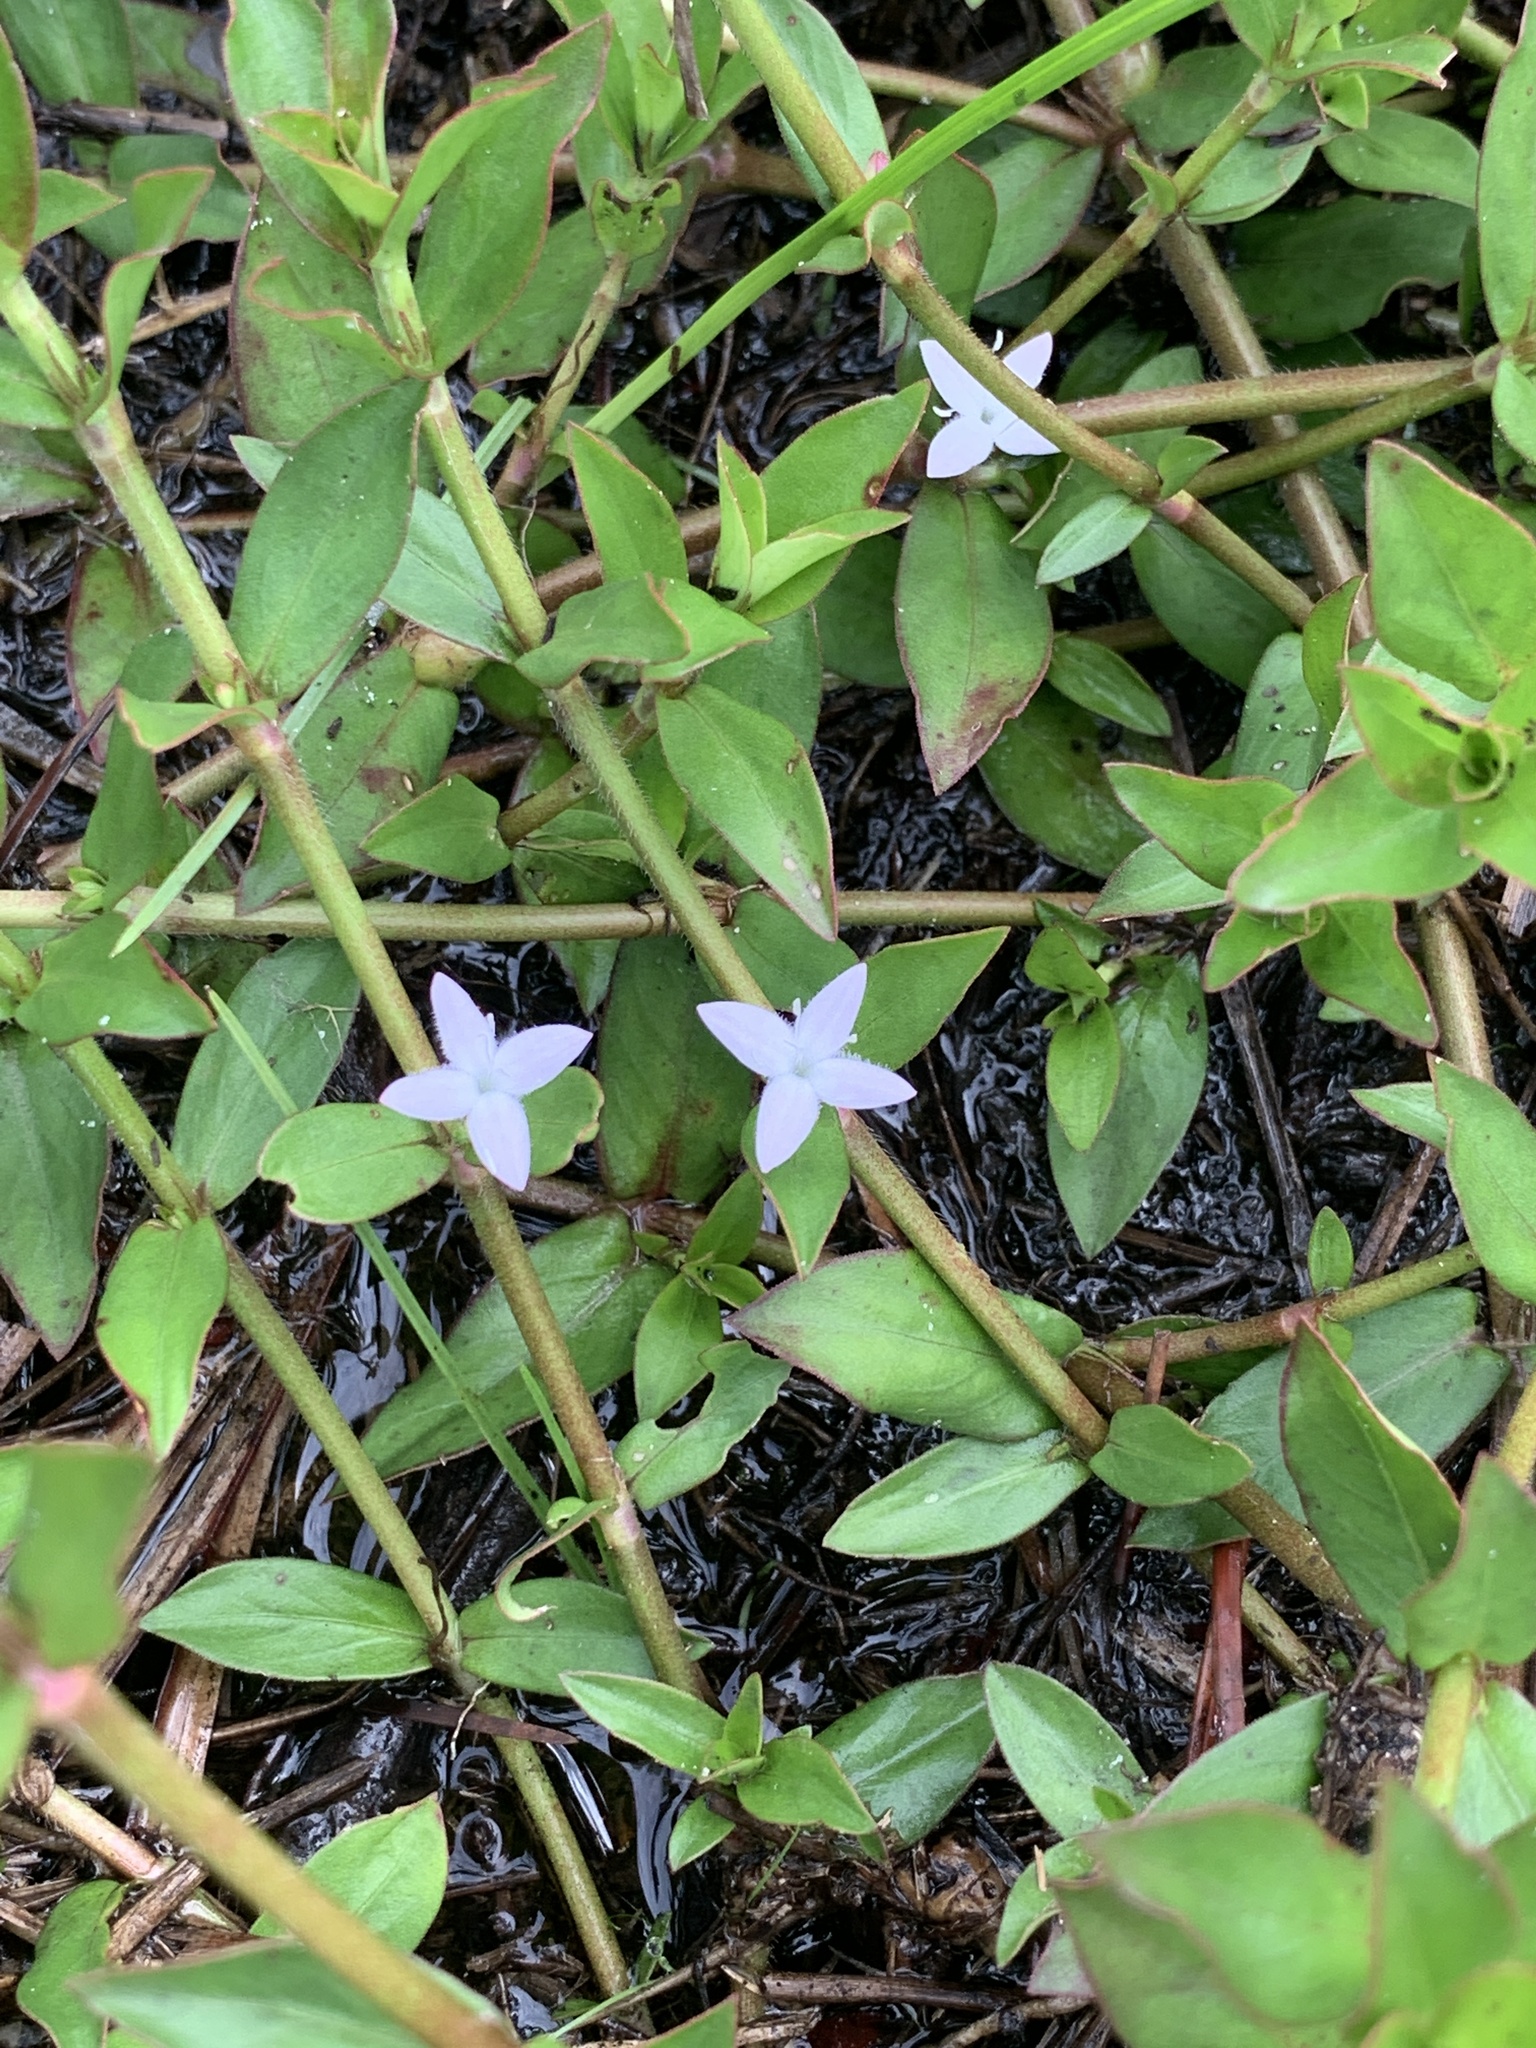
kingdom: Plantae
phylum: Tracheophyta
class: Magnoliopsida
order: Gentianales
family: Rubiaceae
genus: Diodia
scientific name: Diodia virginiana
